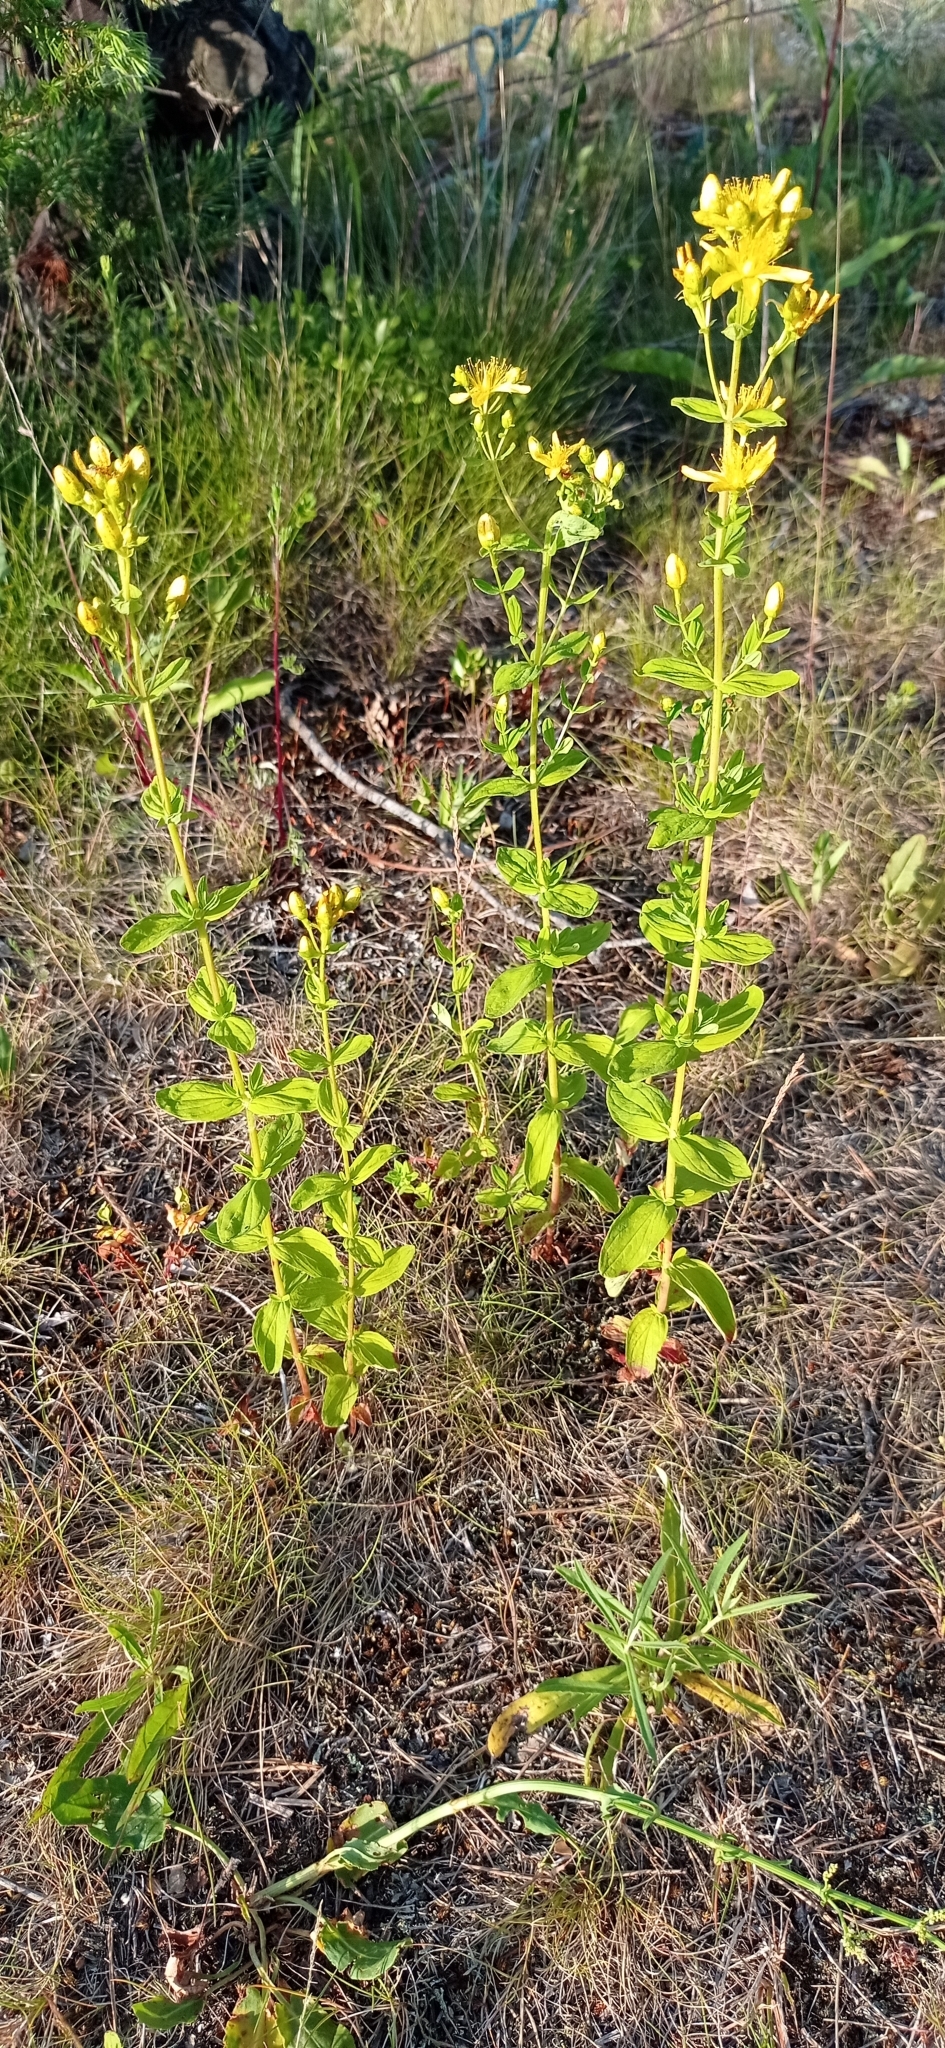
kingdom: Plantae
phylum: Tracheophyta
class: Magnoliopsida
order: Malpighiales
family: Hypericaceae
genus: Hypericum
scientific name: Hypericum maculatum
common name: Imperforate st. john's-wort
